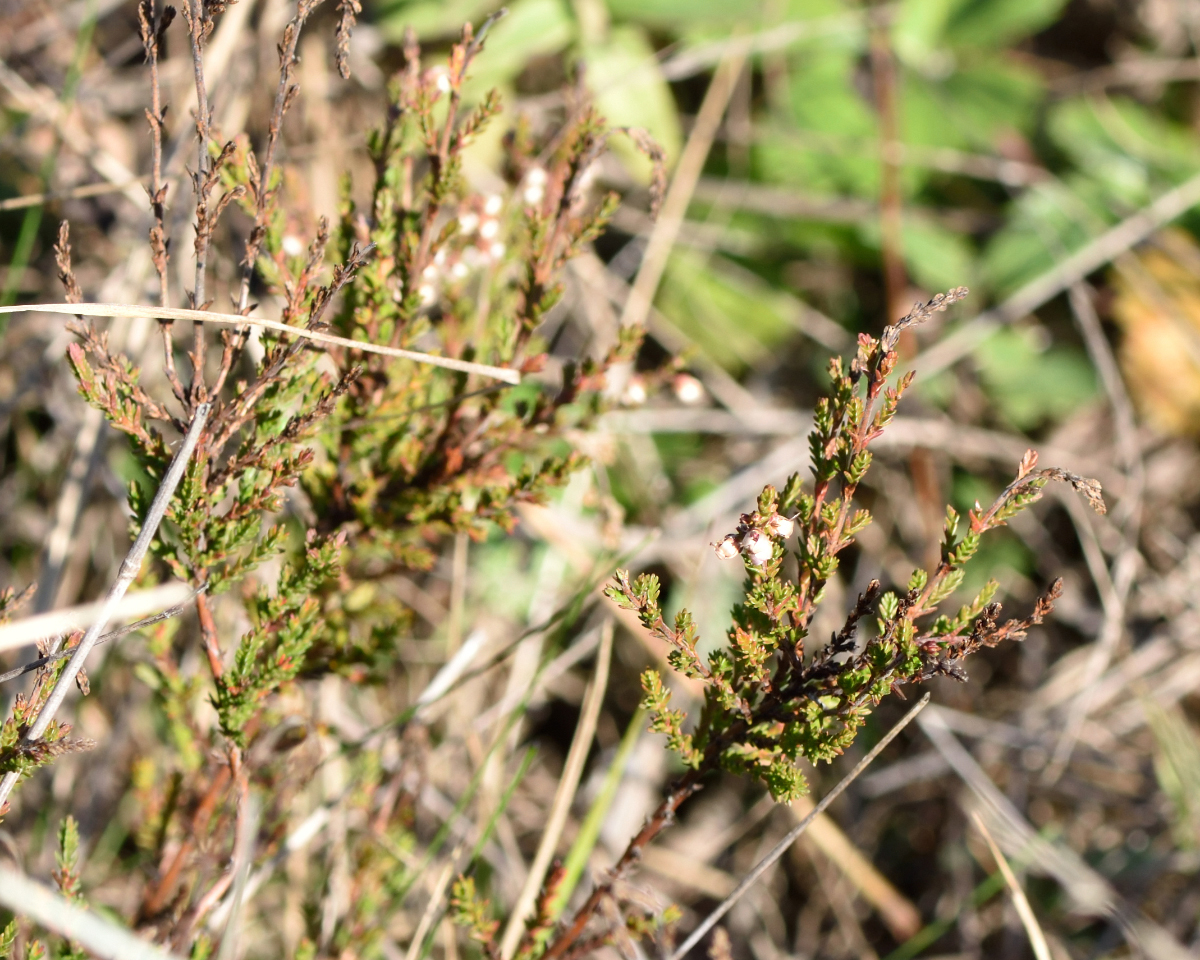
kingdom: Plantae
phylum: Tracheophyta
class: Magnoliopsida
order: Ericales
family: Ericaceae
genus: Calluna
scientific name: Calluna vulgaris
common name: Heather
